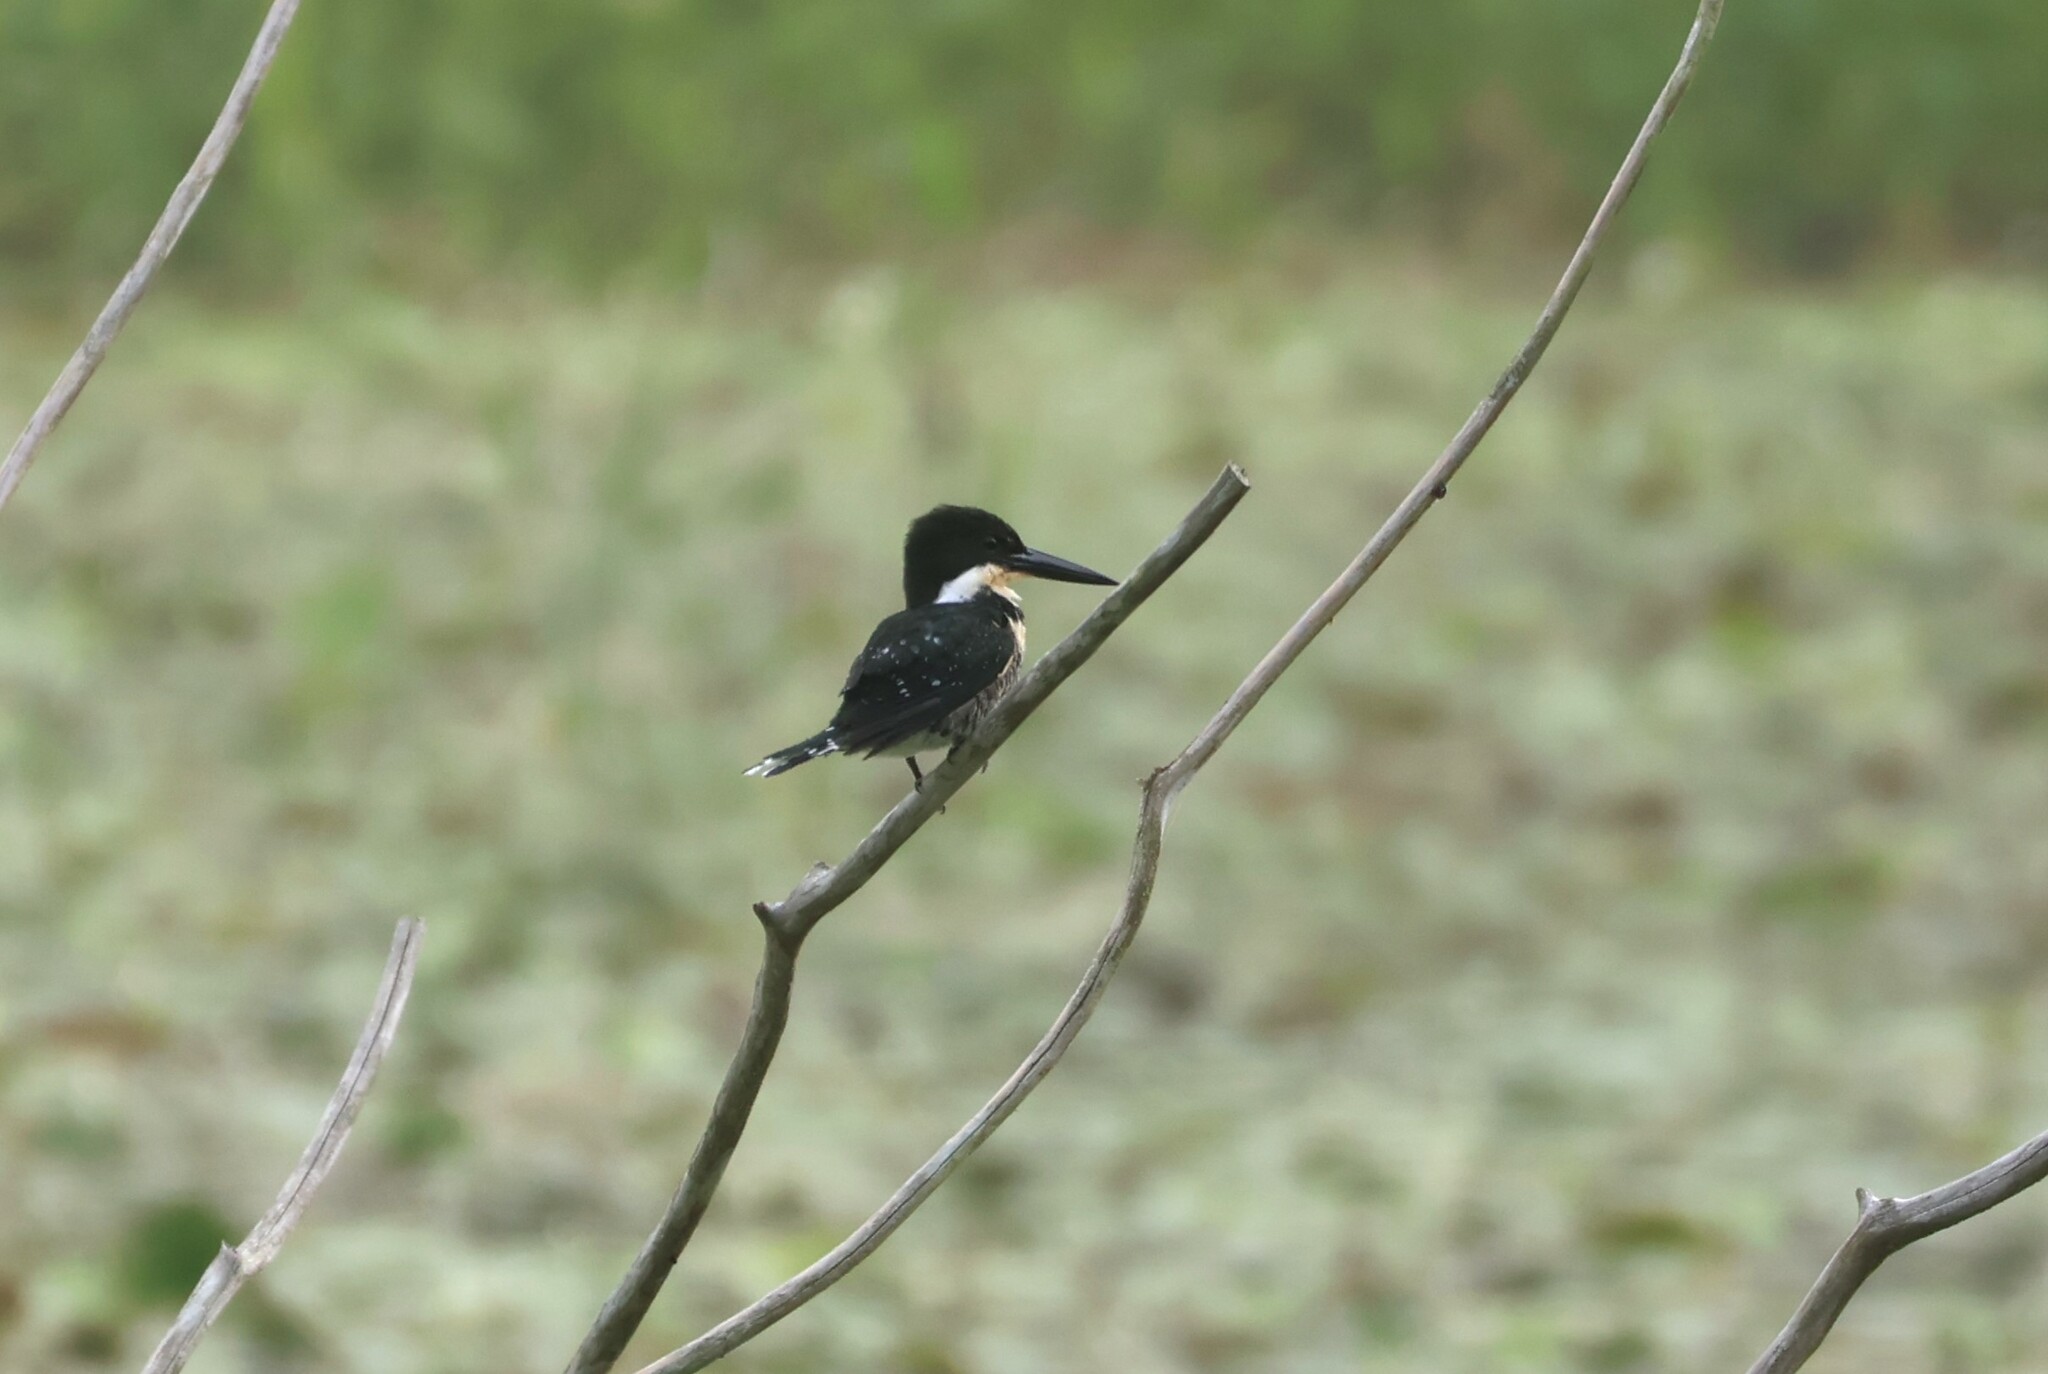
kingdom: Animalia
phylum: Chordata
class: Aves
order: Coraciiformes
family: Alcedinidae
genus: Chloroceryle
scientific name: Chloroceryle americana
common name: Green kingfisher
